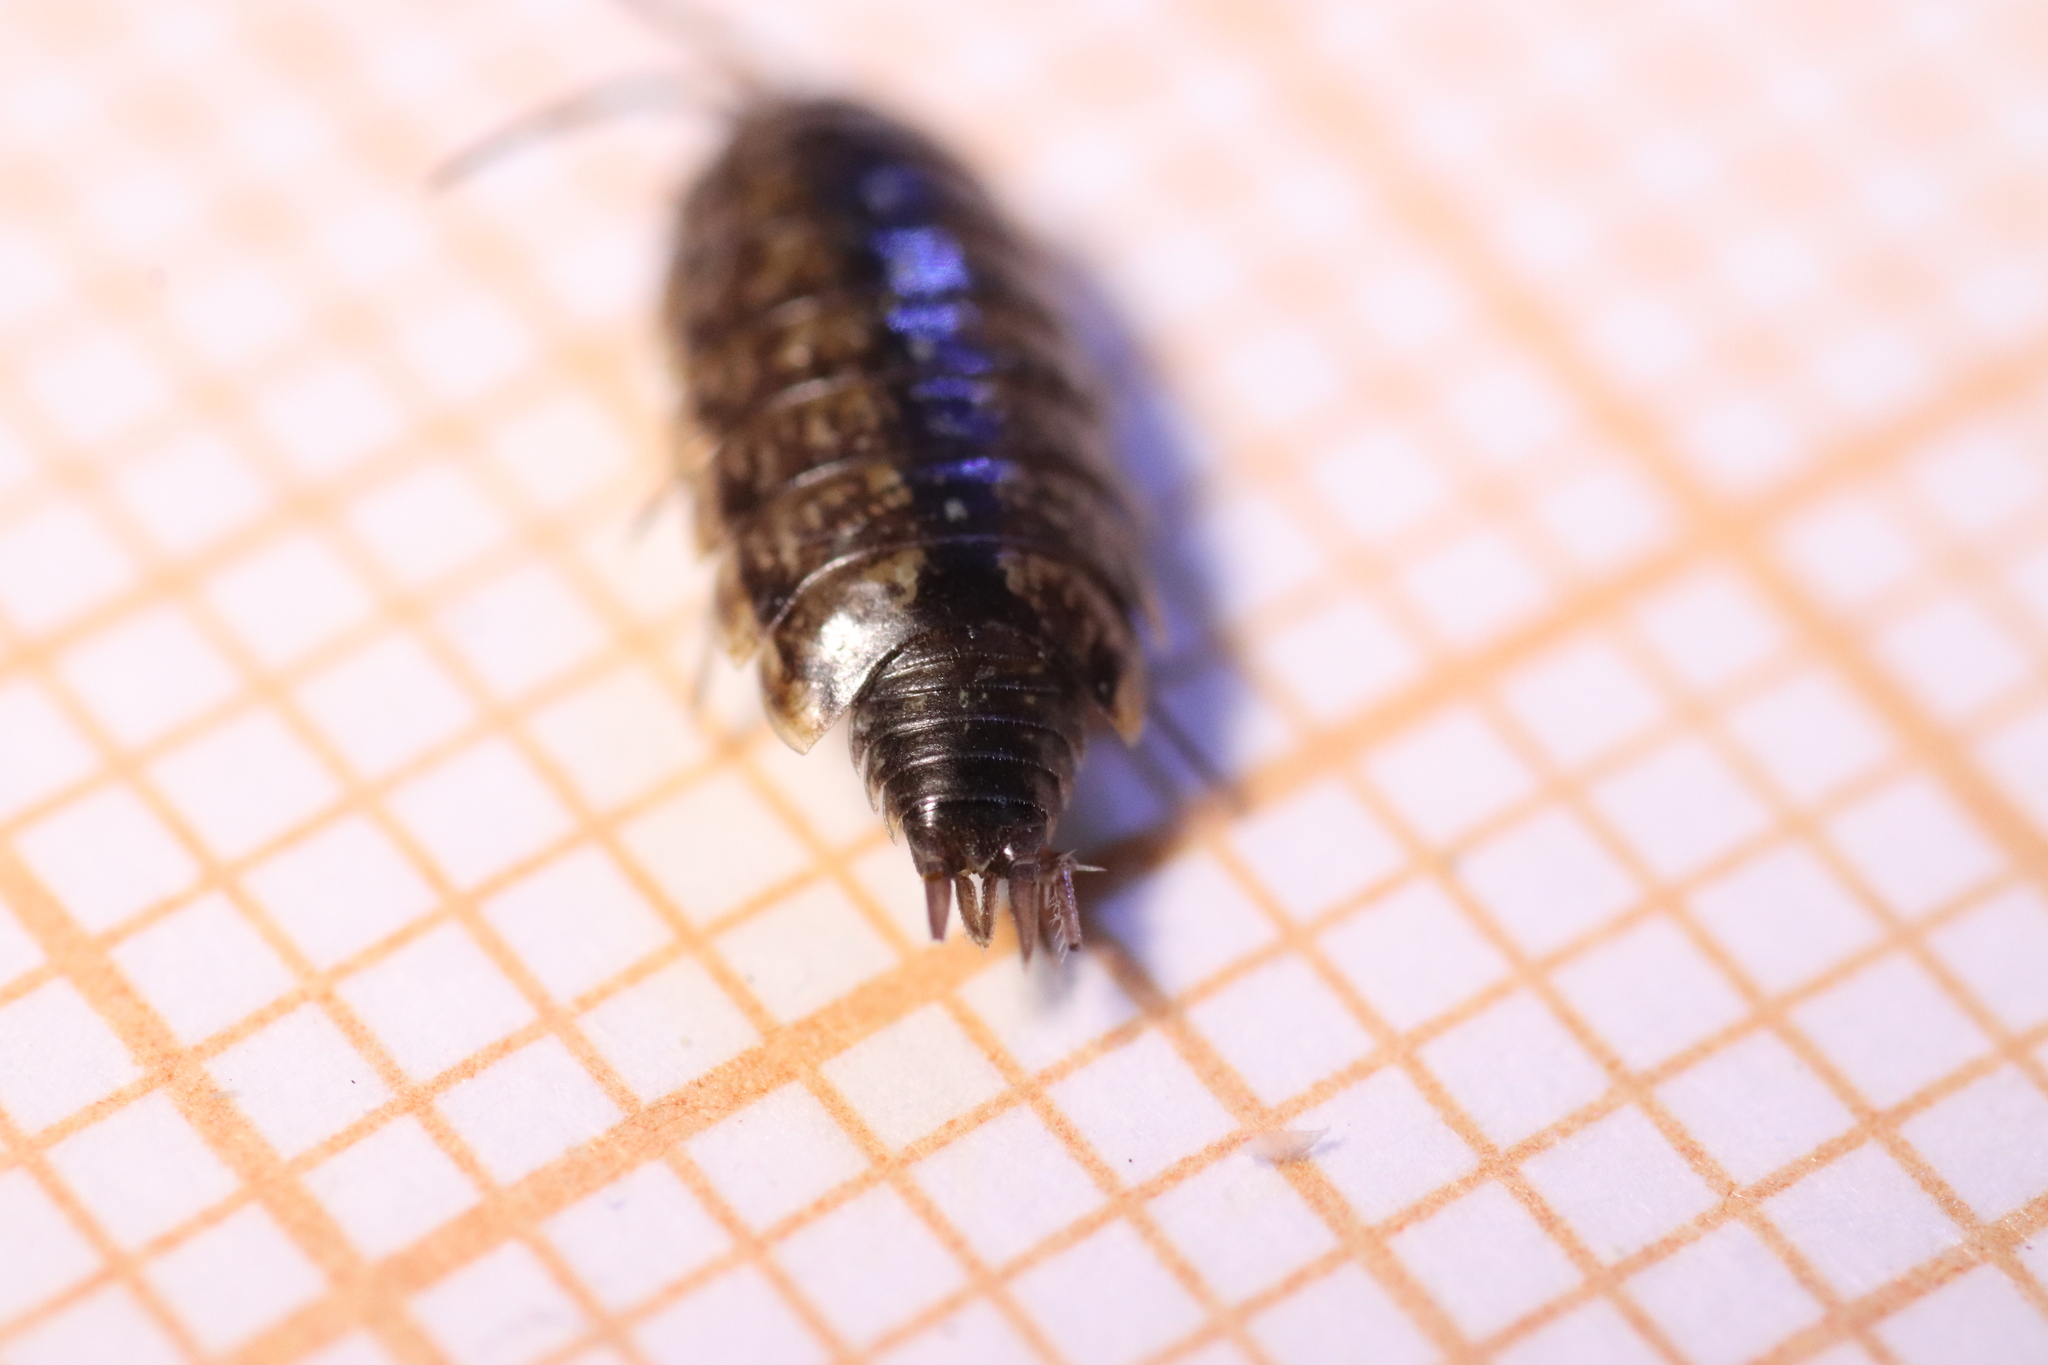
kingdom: Animalia
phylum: Arthropoda
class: Malacostraca
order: Isopoda
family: Philosciidae
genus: Philoscia
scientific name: Philoscia affinis
